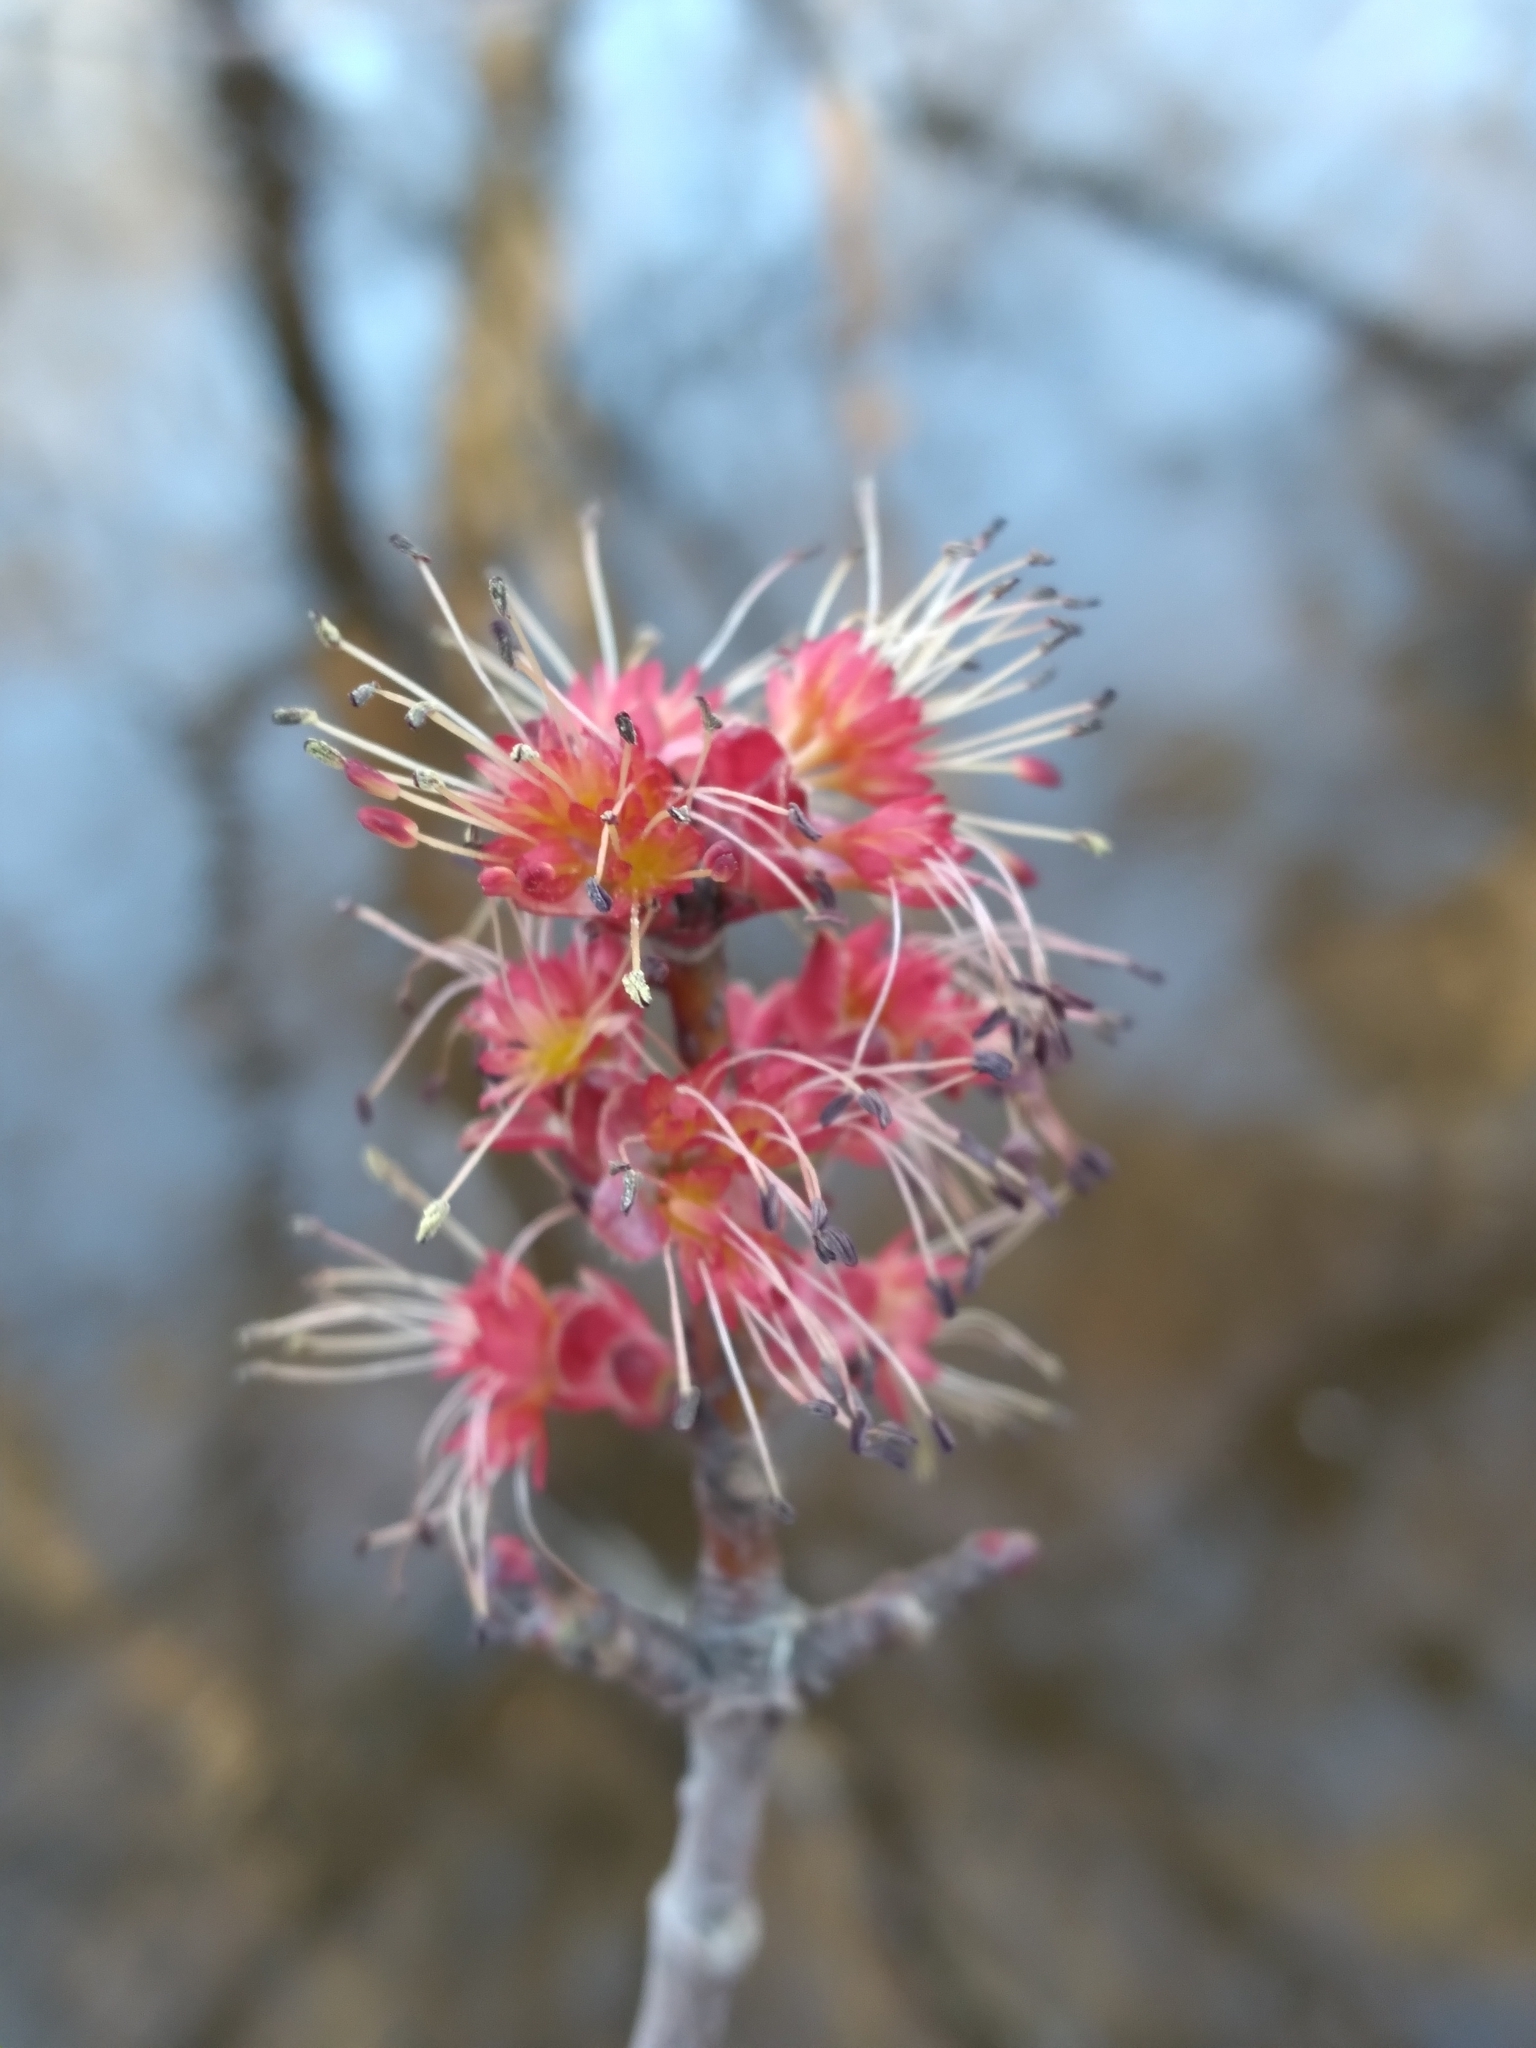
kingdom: Plantae
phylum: Tracheophyta
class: Magnoliopsida
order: Sapindales
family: Sapindaceae
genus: Acer
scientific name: Acer rubrum
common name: Red maple
